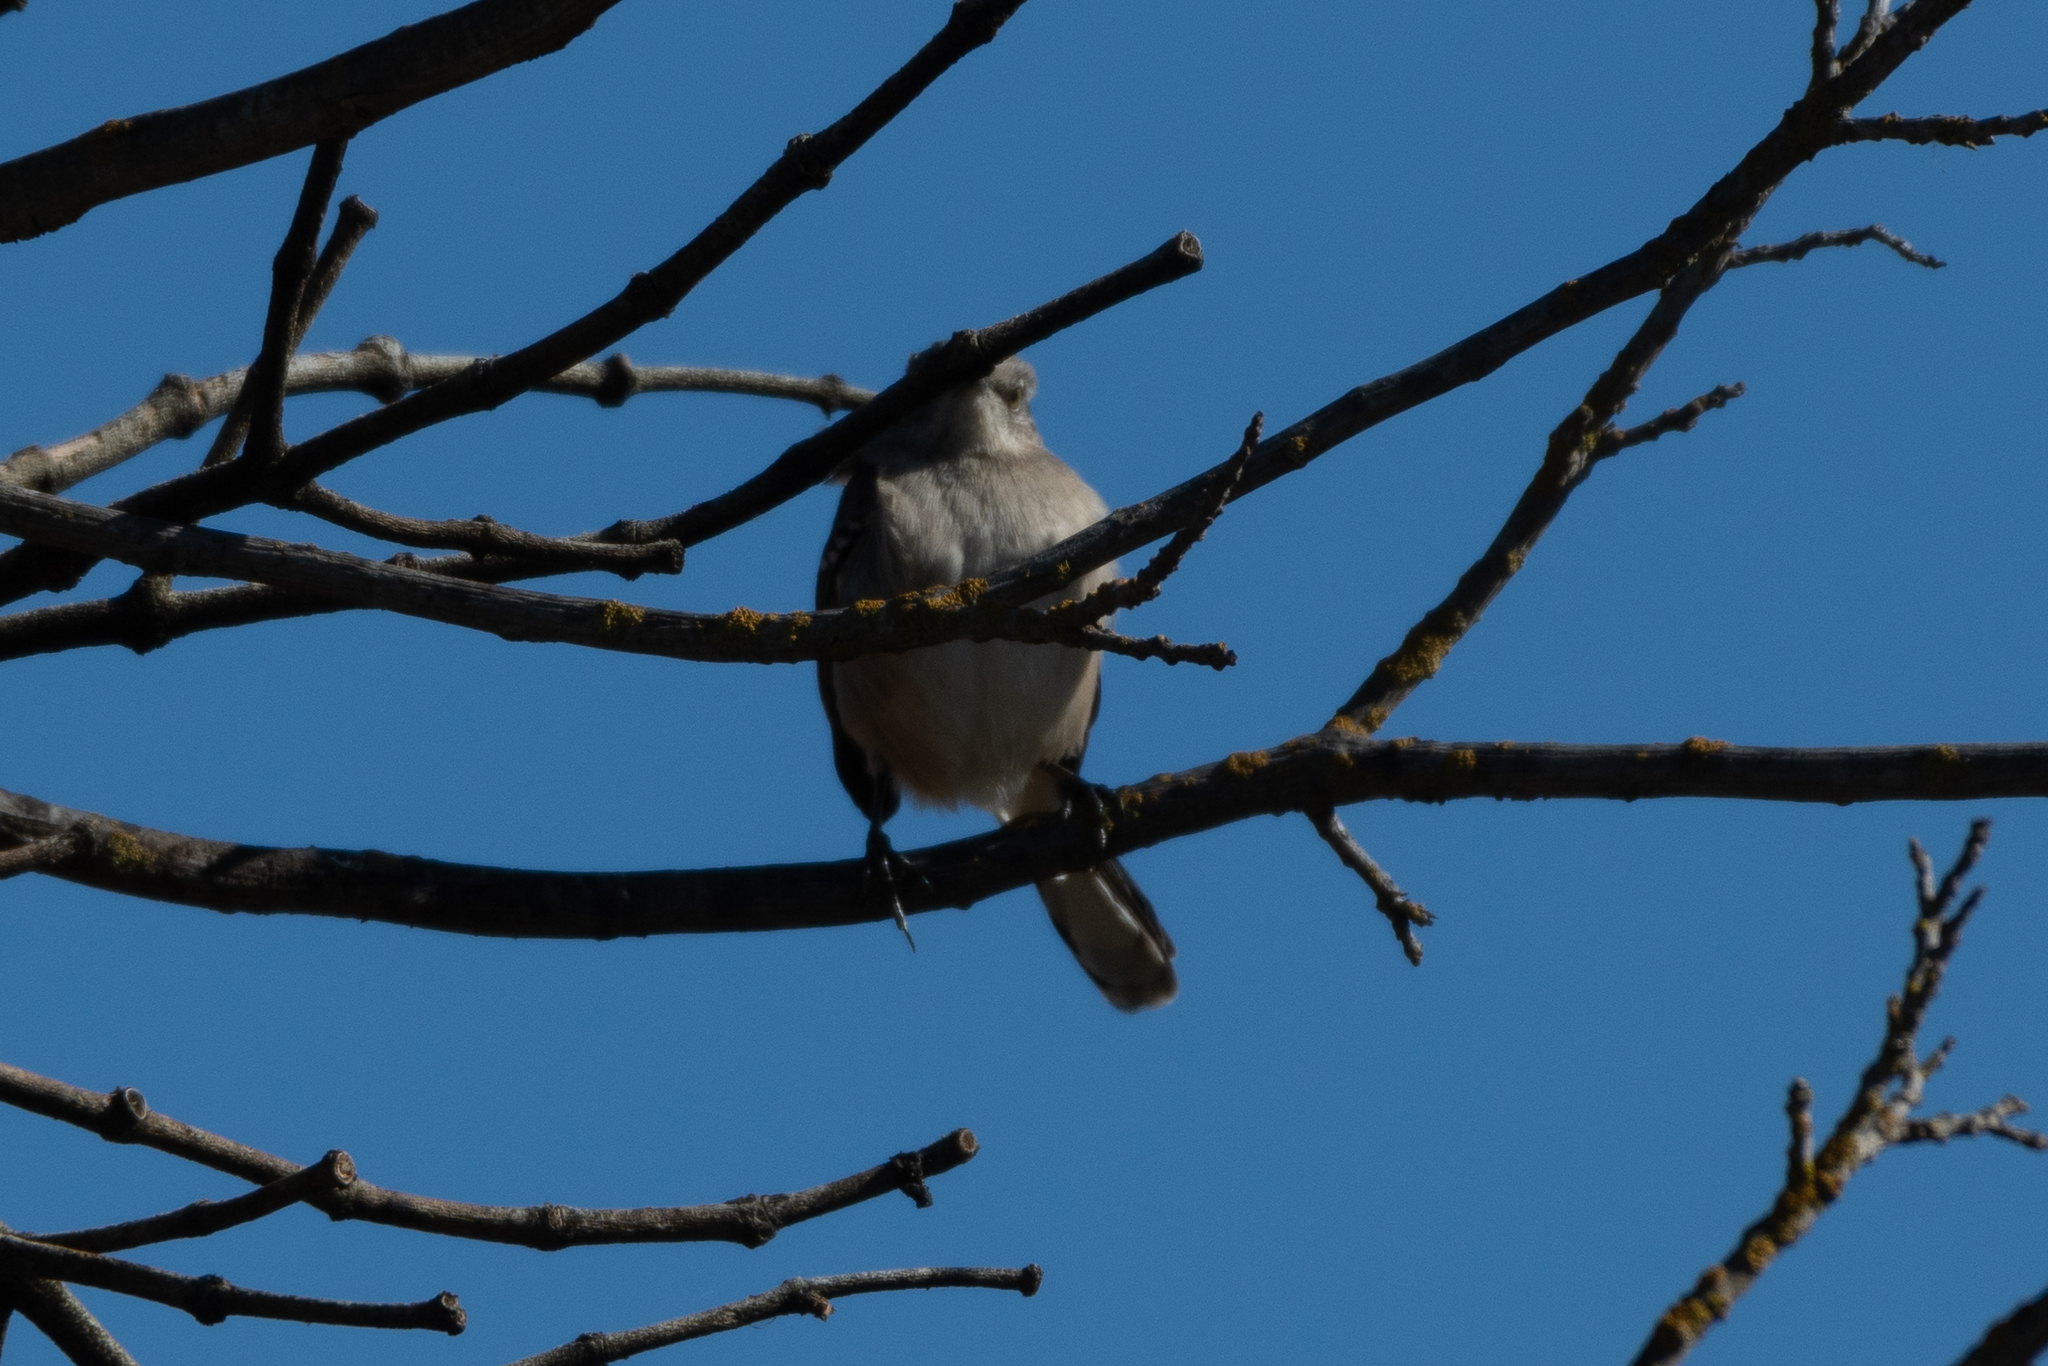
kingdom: Animalia
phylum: Chordata
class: Aves
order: Passeriformes
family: Mimidae
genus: Mimus
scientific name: Mimus polyglottos
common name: Northern mockingbird
